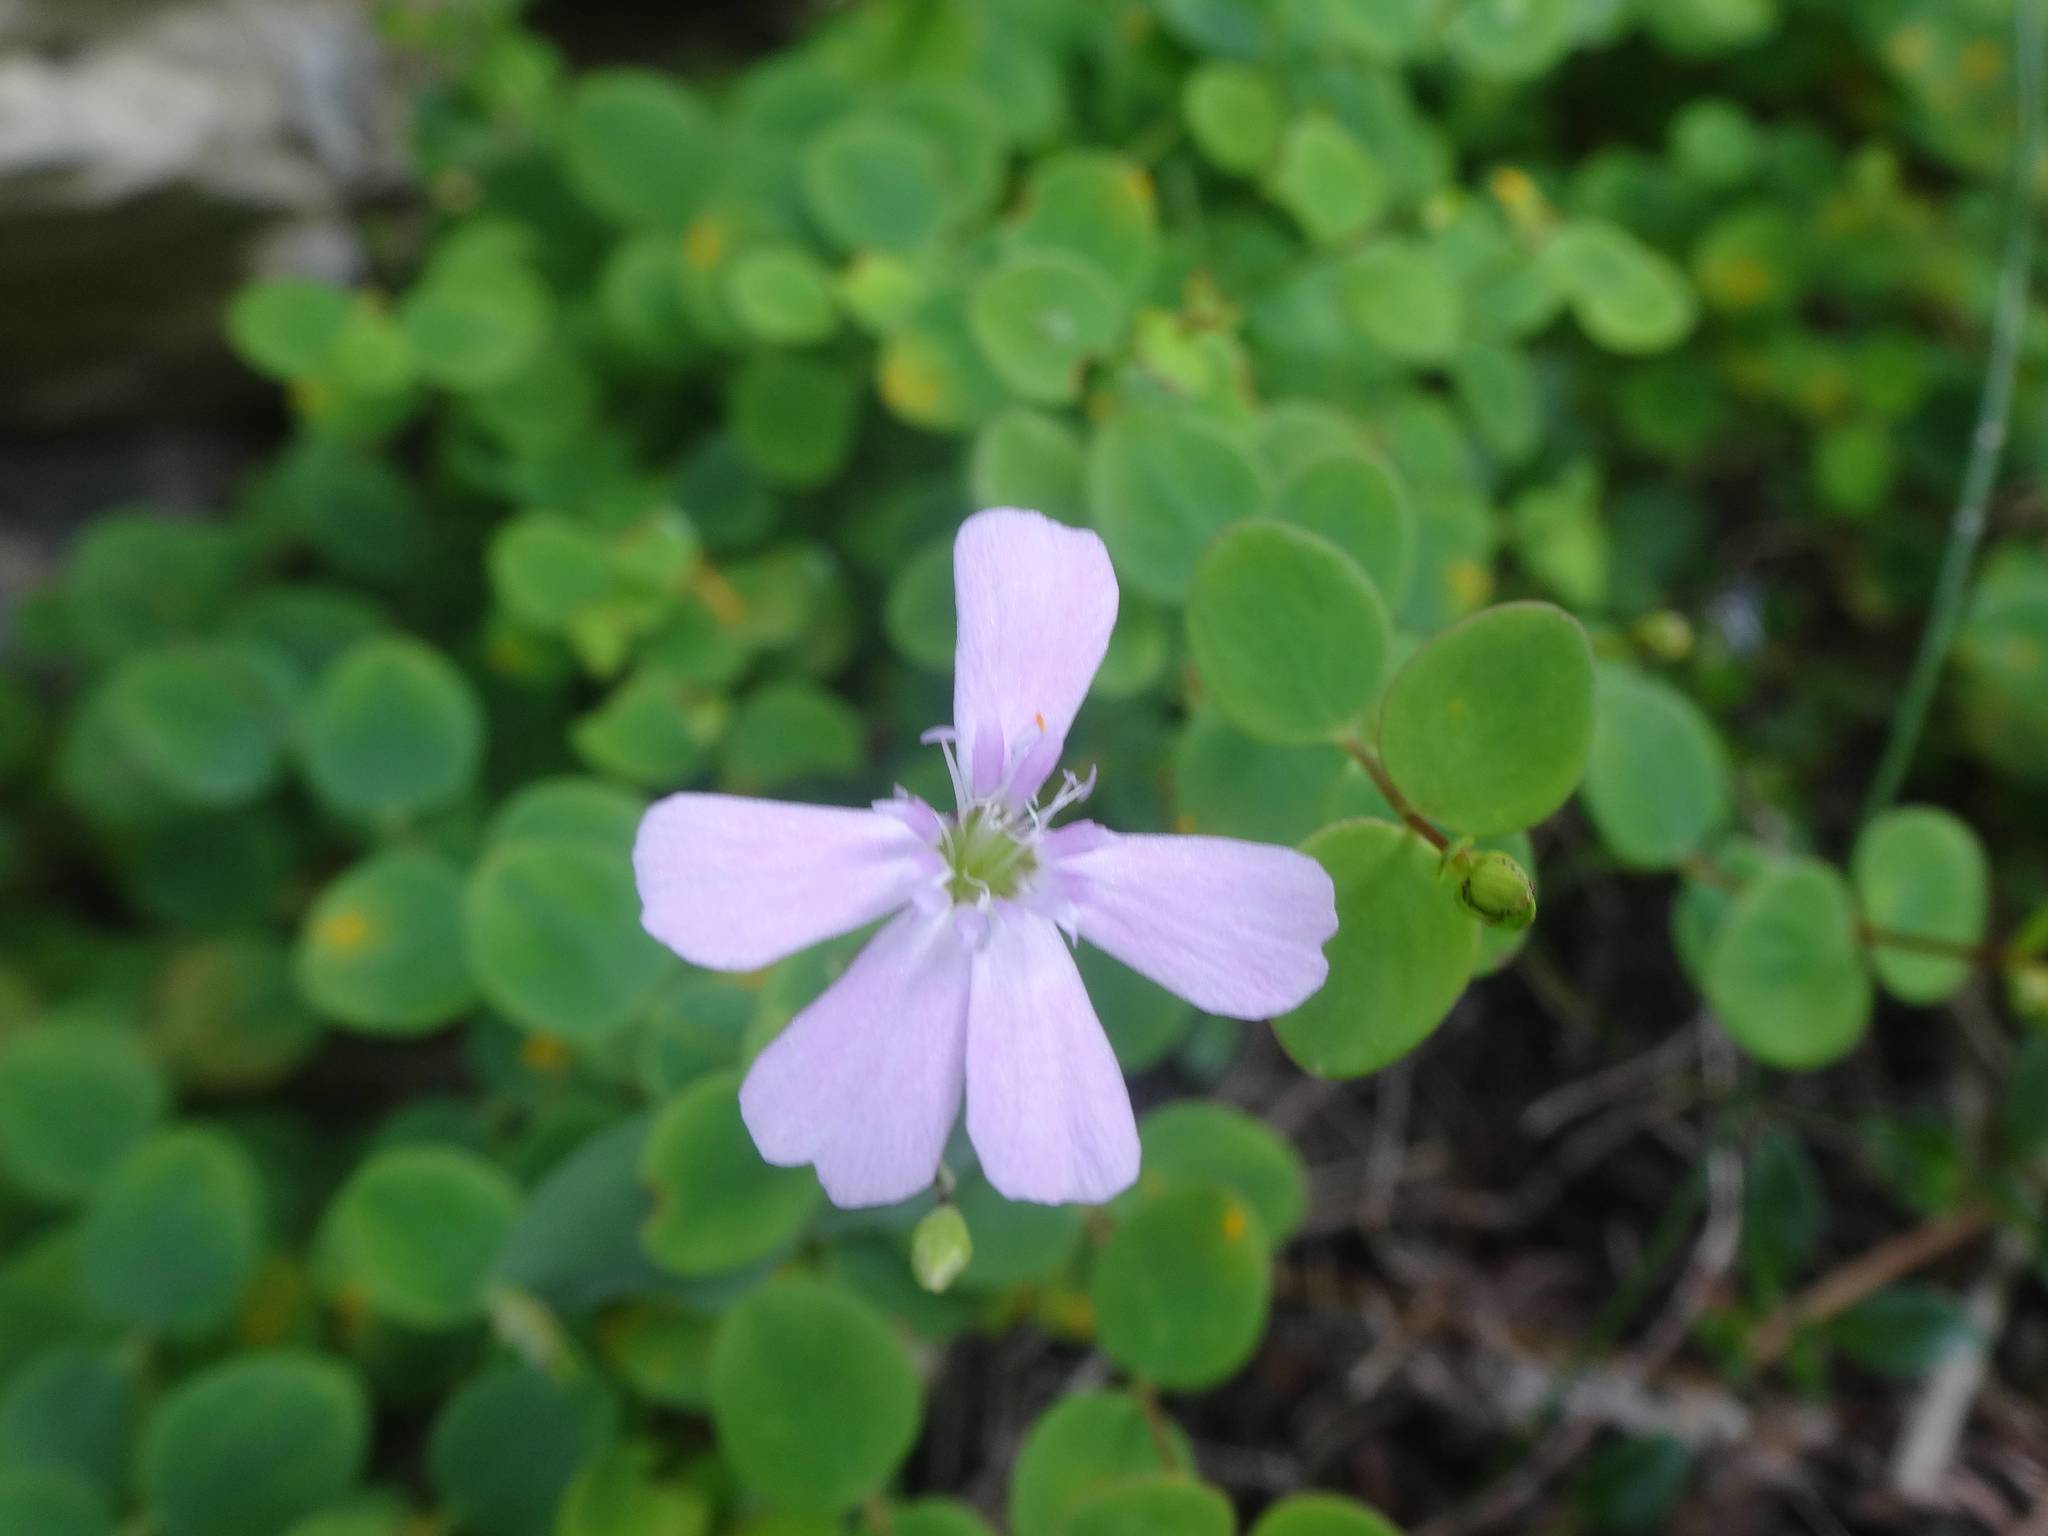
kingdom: Plantae
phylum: Tracheophyta
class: Magnoliopsida
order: Caryophyllales
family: Caryophyllaceae
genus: Petrocoptis
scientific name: Petrocoptis pyrenaica
